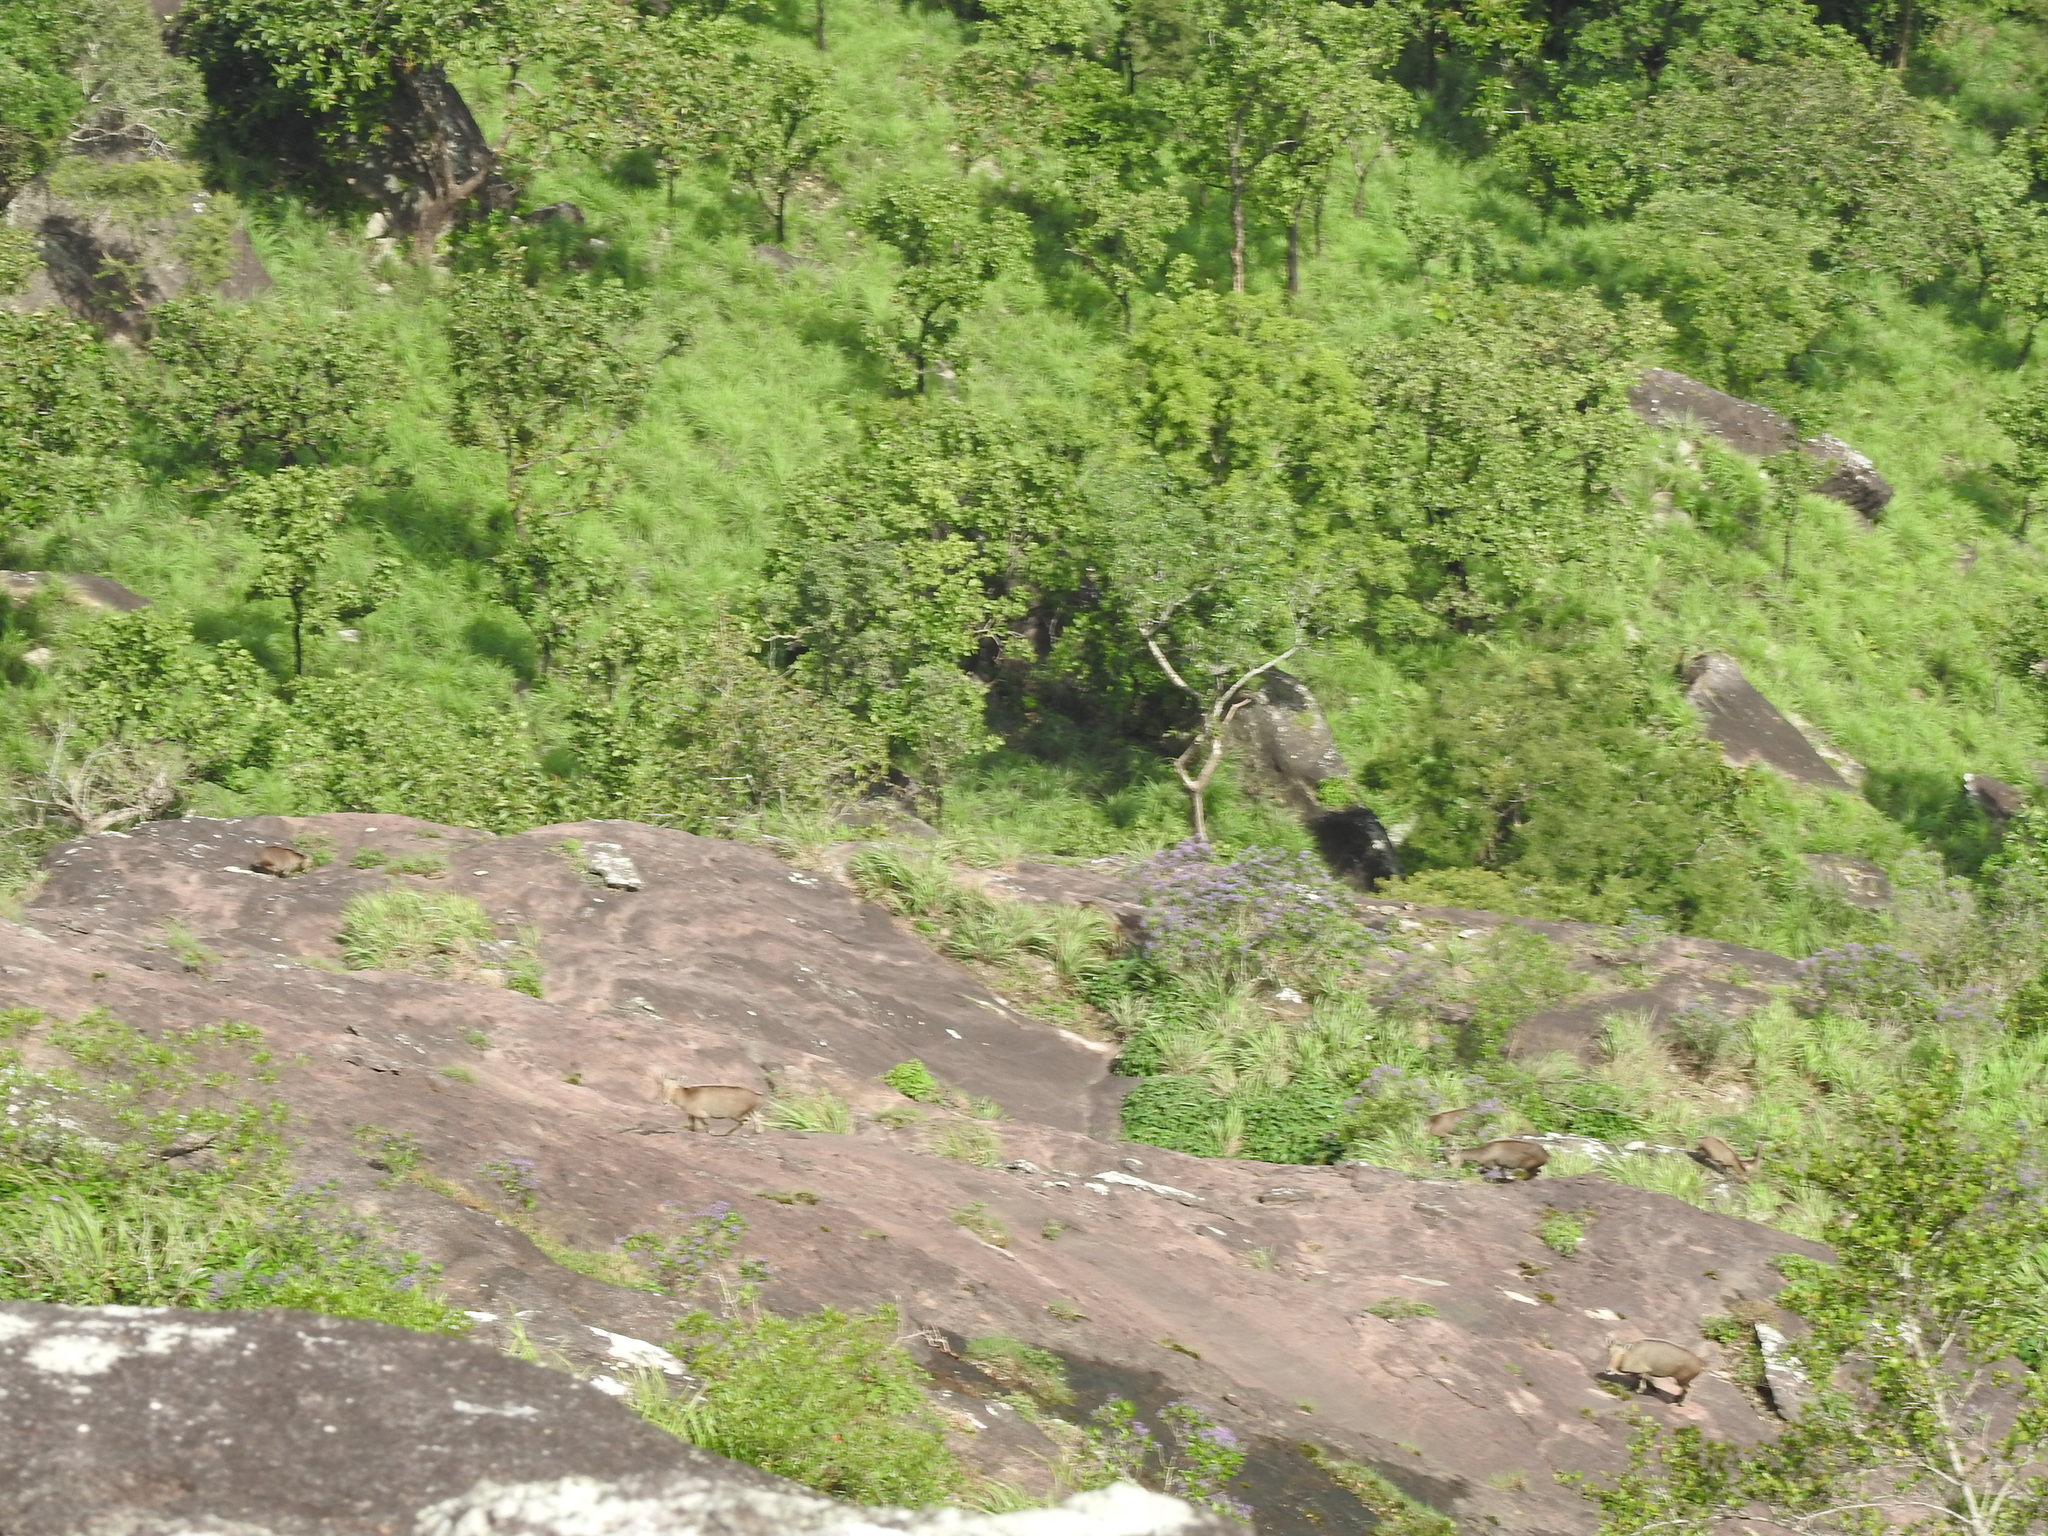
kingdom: Animalia
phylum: Chordata
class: Mammalia
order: Artiodactyla
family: Bovidae
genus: Hemitragus
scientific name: Hemitragus hylocrius
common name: Nilgiri tahr
